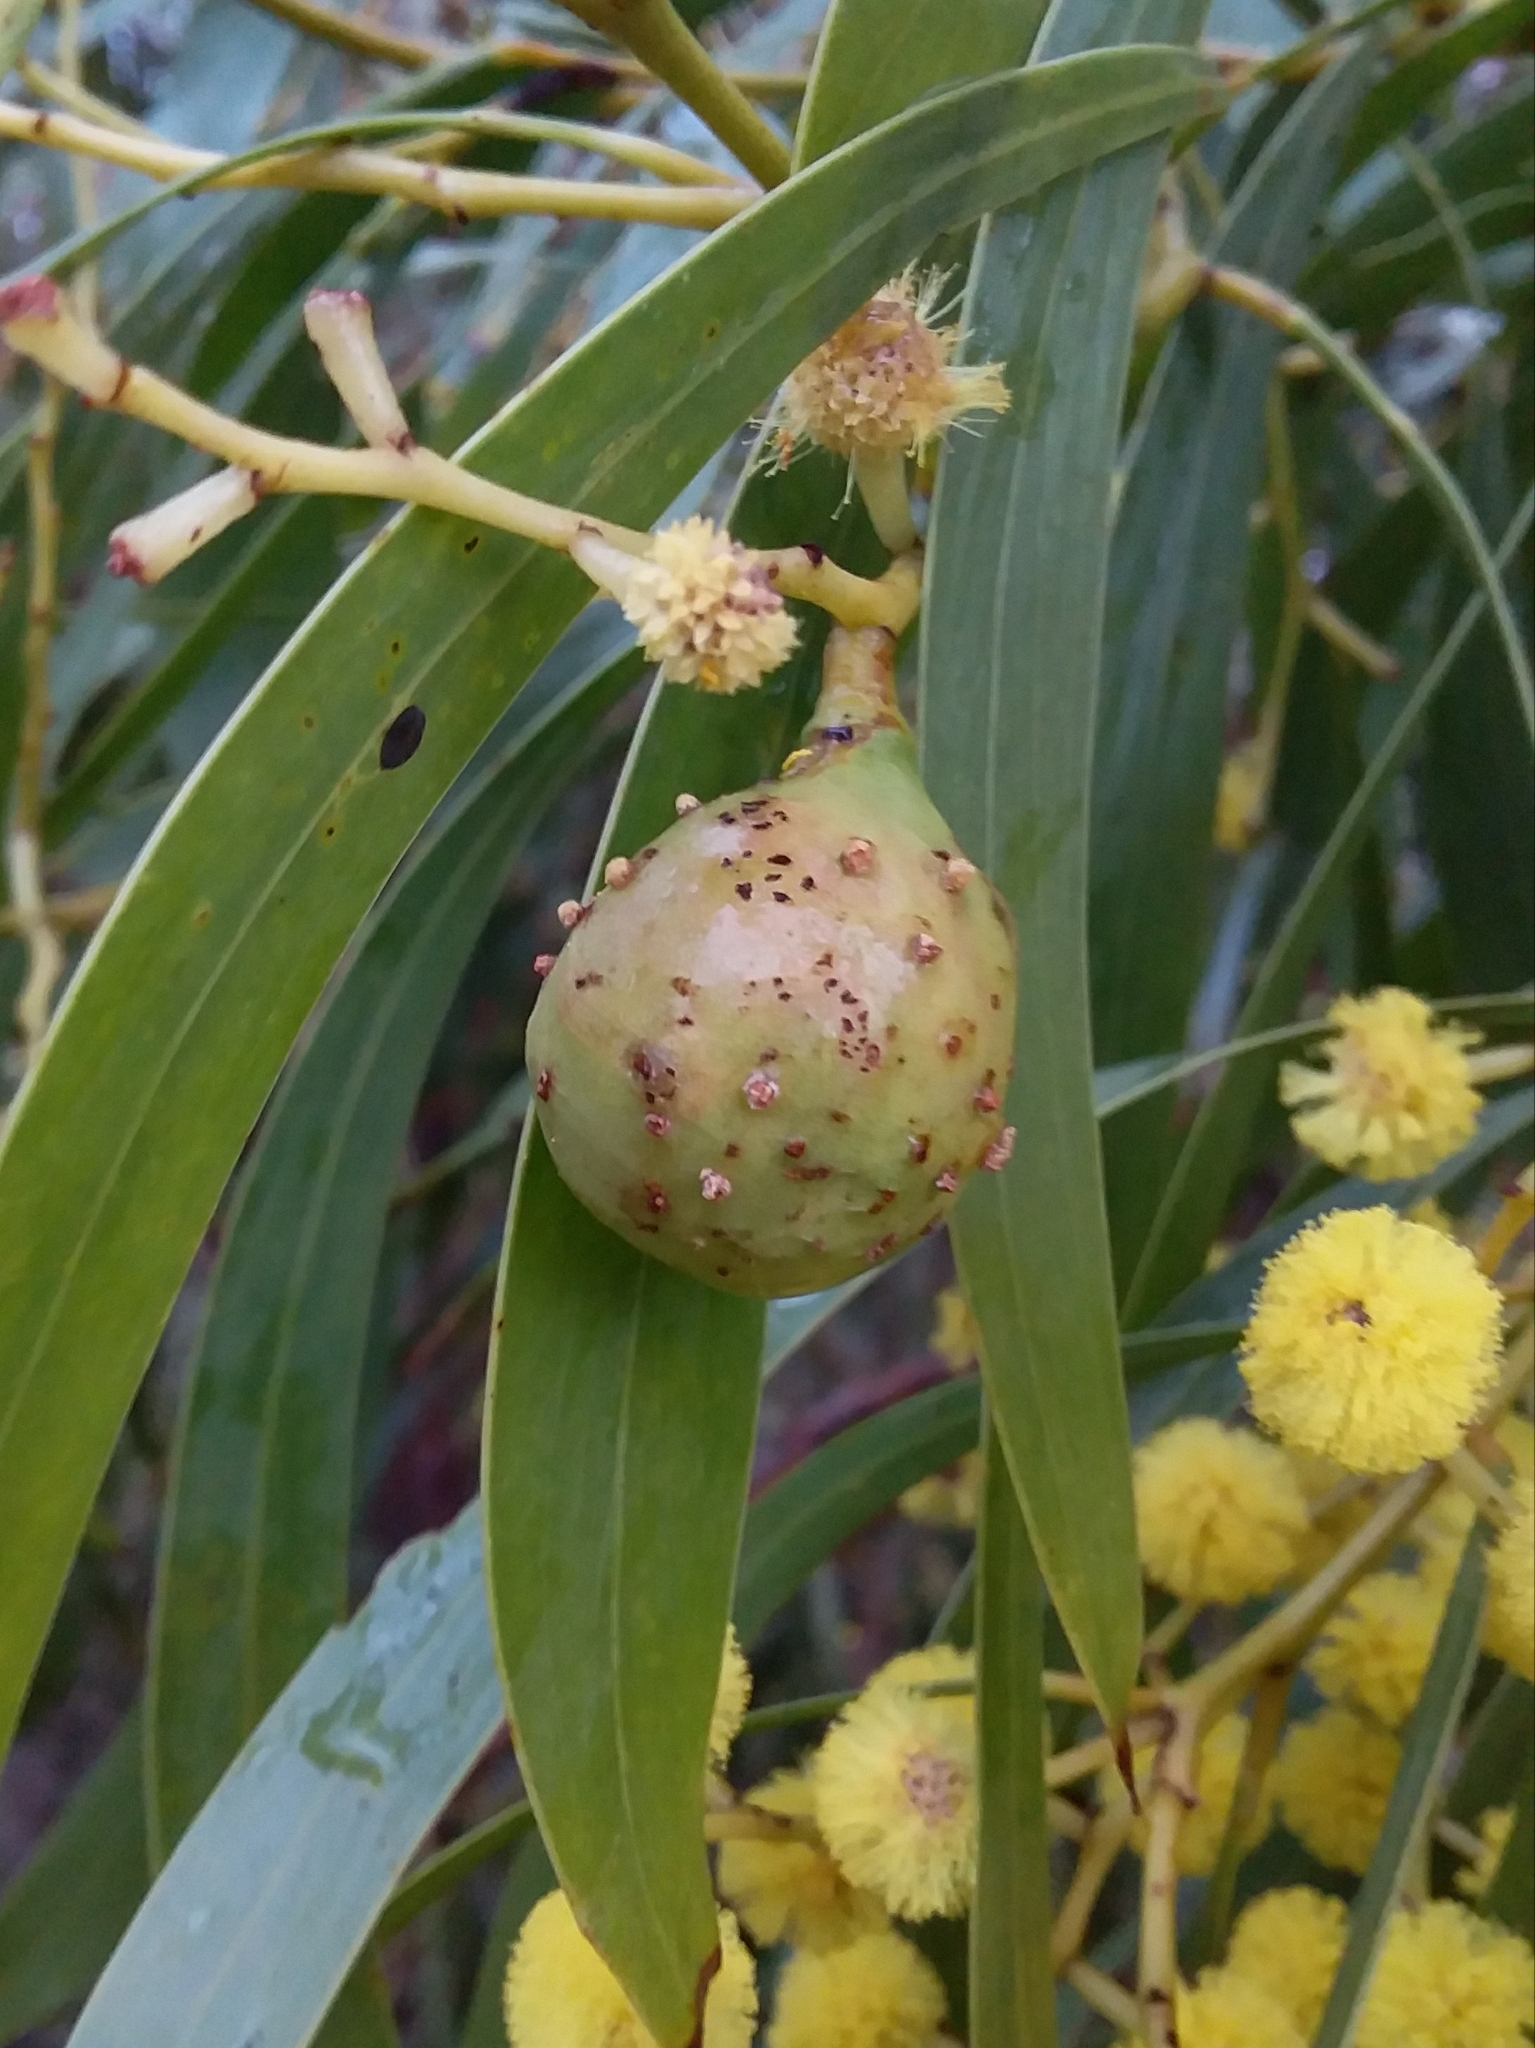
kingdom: Animalia
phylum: Arthropoda
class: Insecta
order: Hymenoptera
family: Pteromalidae
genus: Trichilogaster
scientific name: Trichilogaster signiventris
